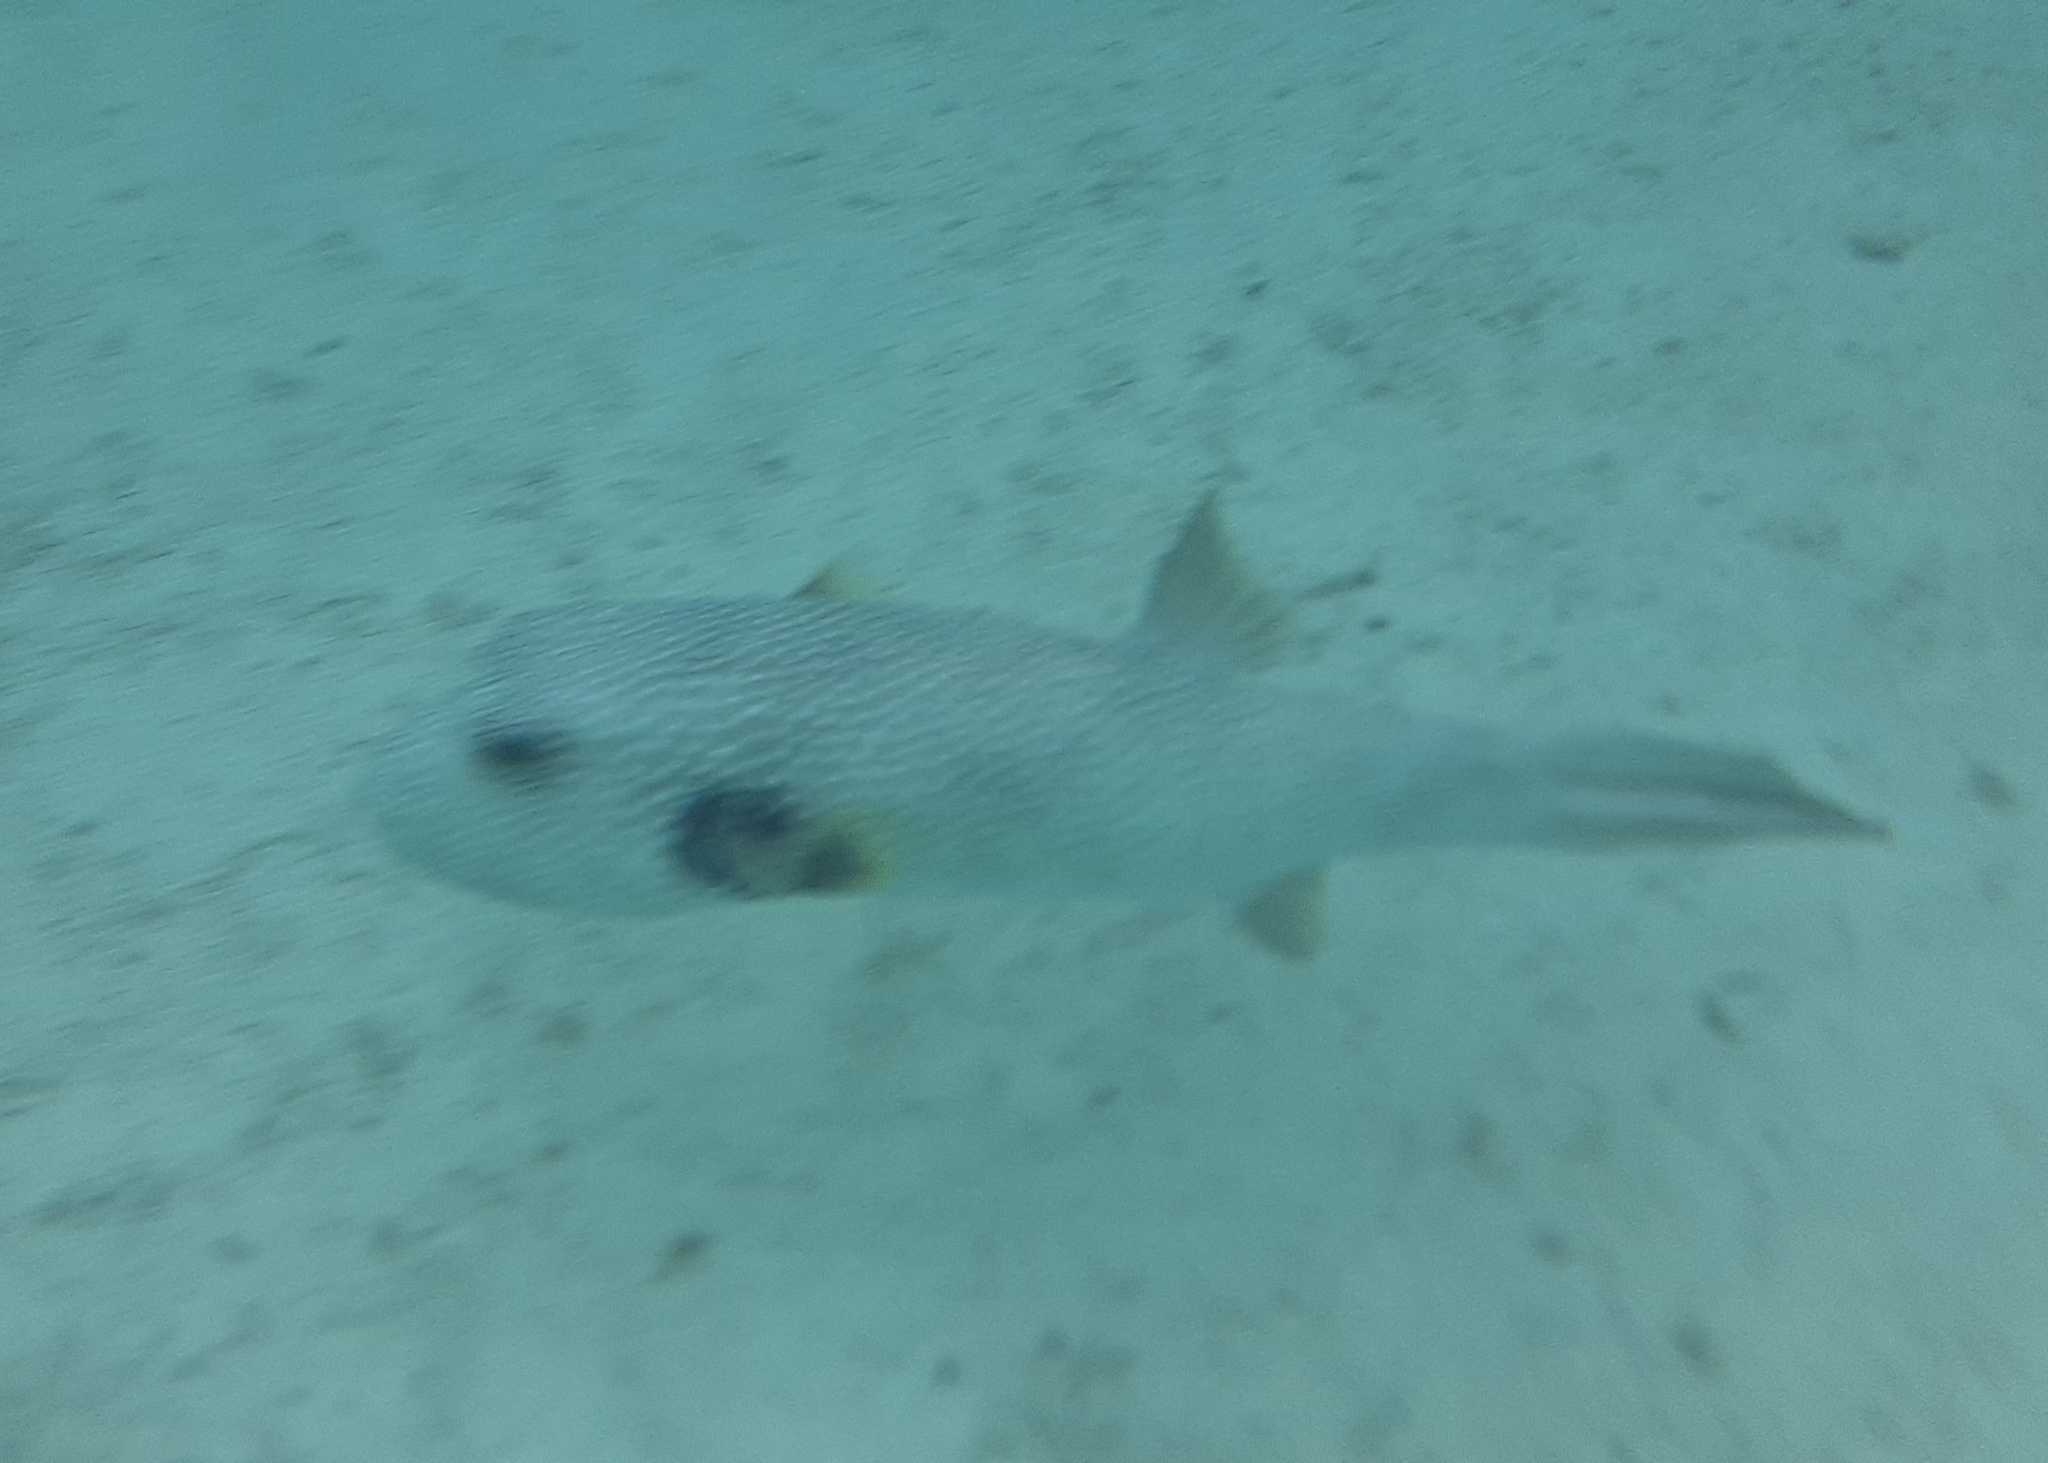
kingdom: Animalia
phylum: Chordata
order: Tetraodontiformes
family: Tetraodontidae
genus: Arothron
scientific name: Arothron hispidus
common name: Stripebelly puffer
